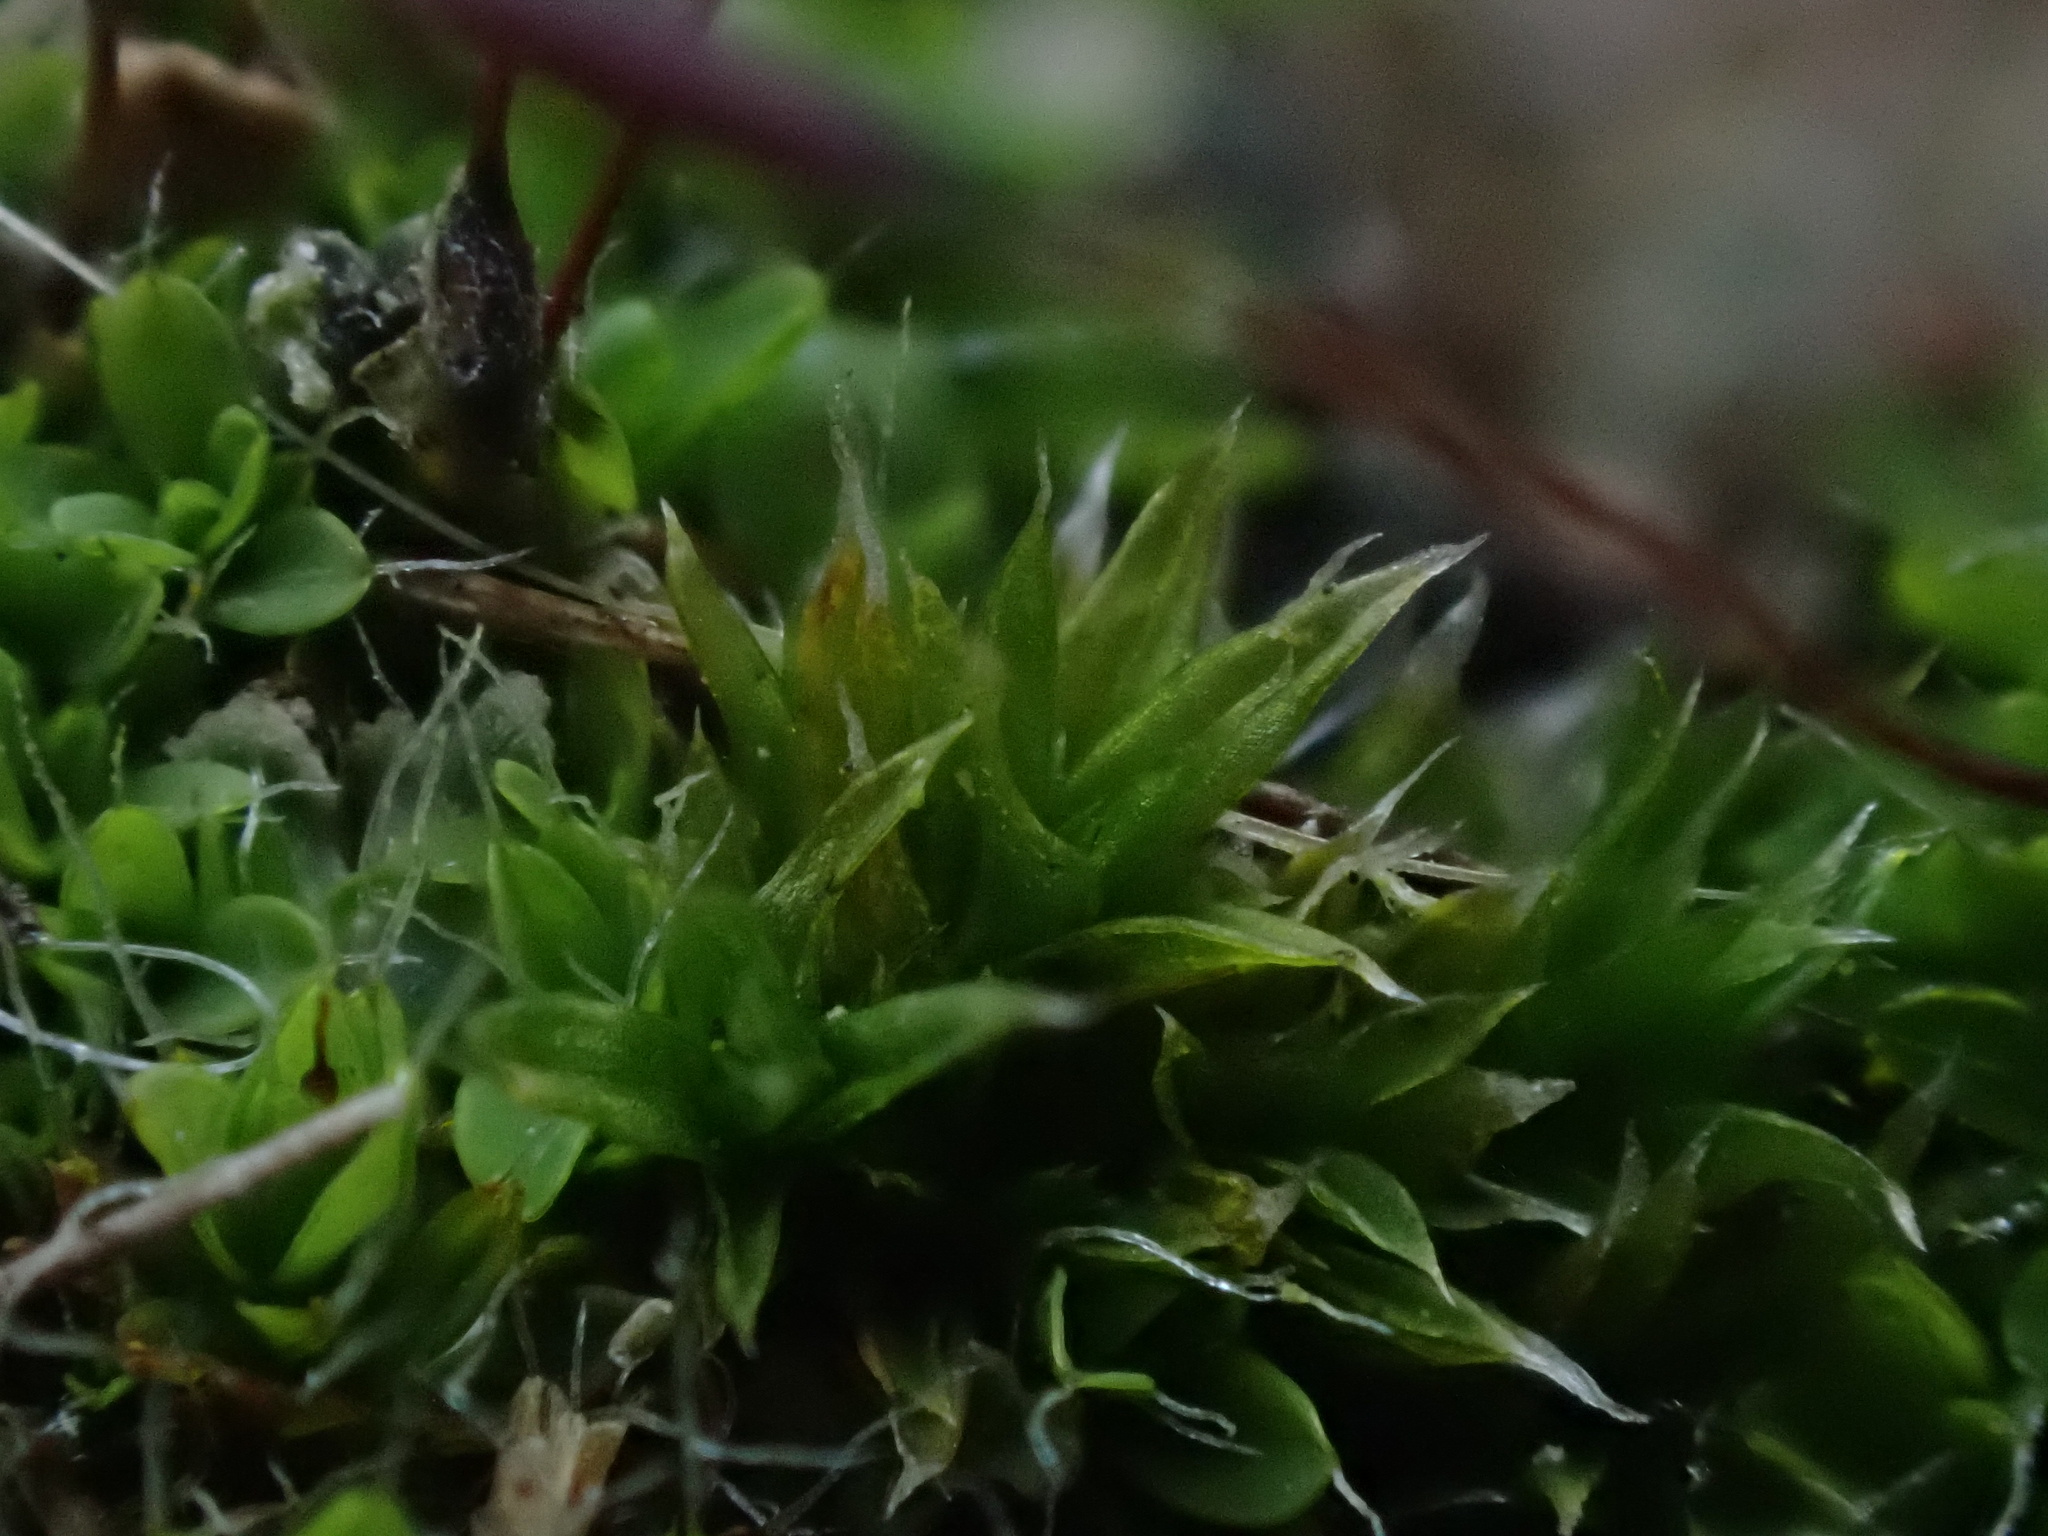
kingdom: Plantae
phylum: Bryophyta
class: Bryopsida
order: Pottiales
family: Pottiaceae
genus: Tortula
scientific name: Tortula muralis
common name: Wall screw-moss
